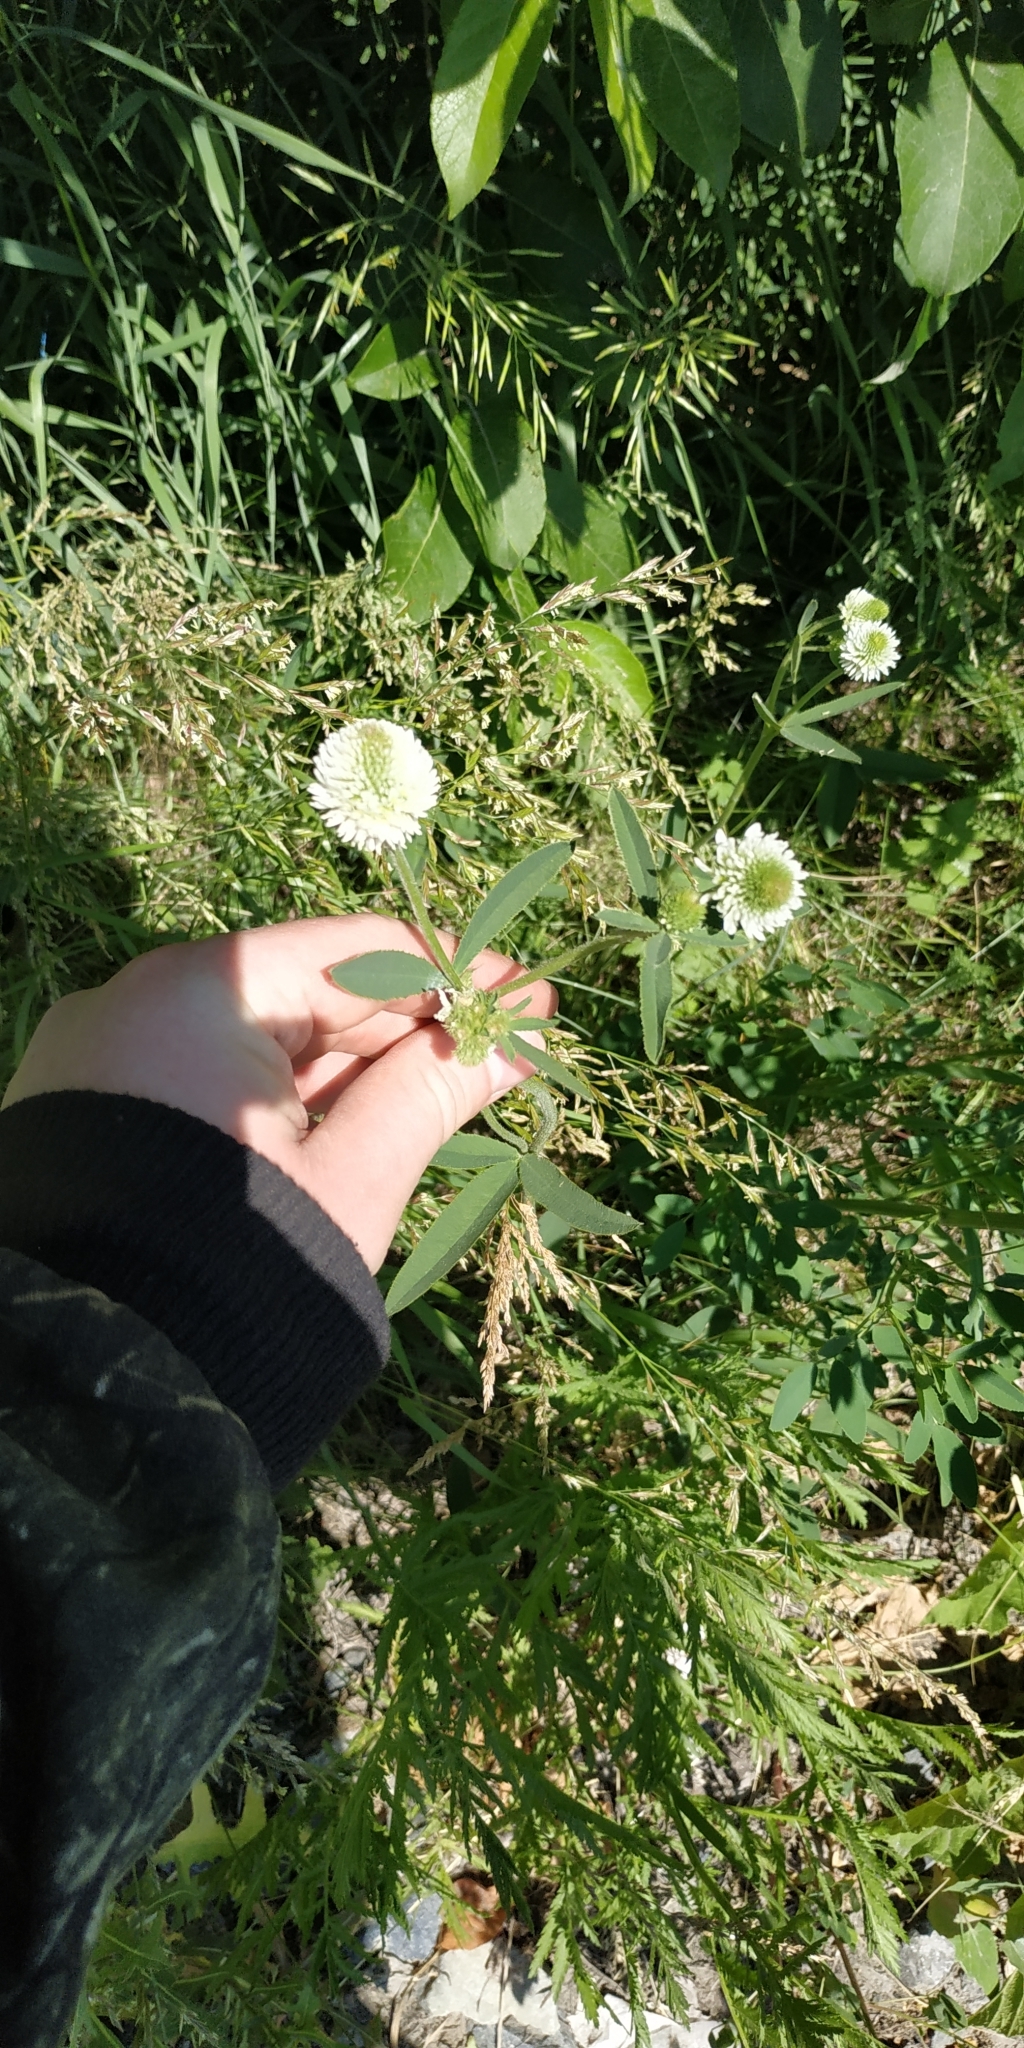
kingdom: Plantae
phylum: Tracheophyta
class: Magnoliopsida
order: Fabales
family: Fabaceae
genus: Trifolium
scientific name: Trifolium montanum
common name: Mountain clover
